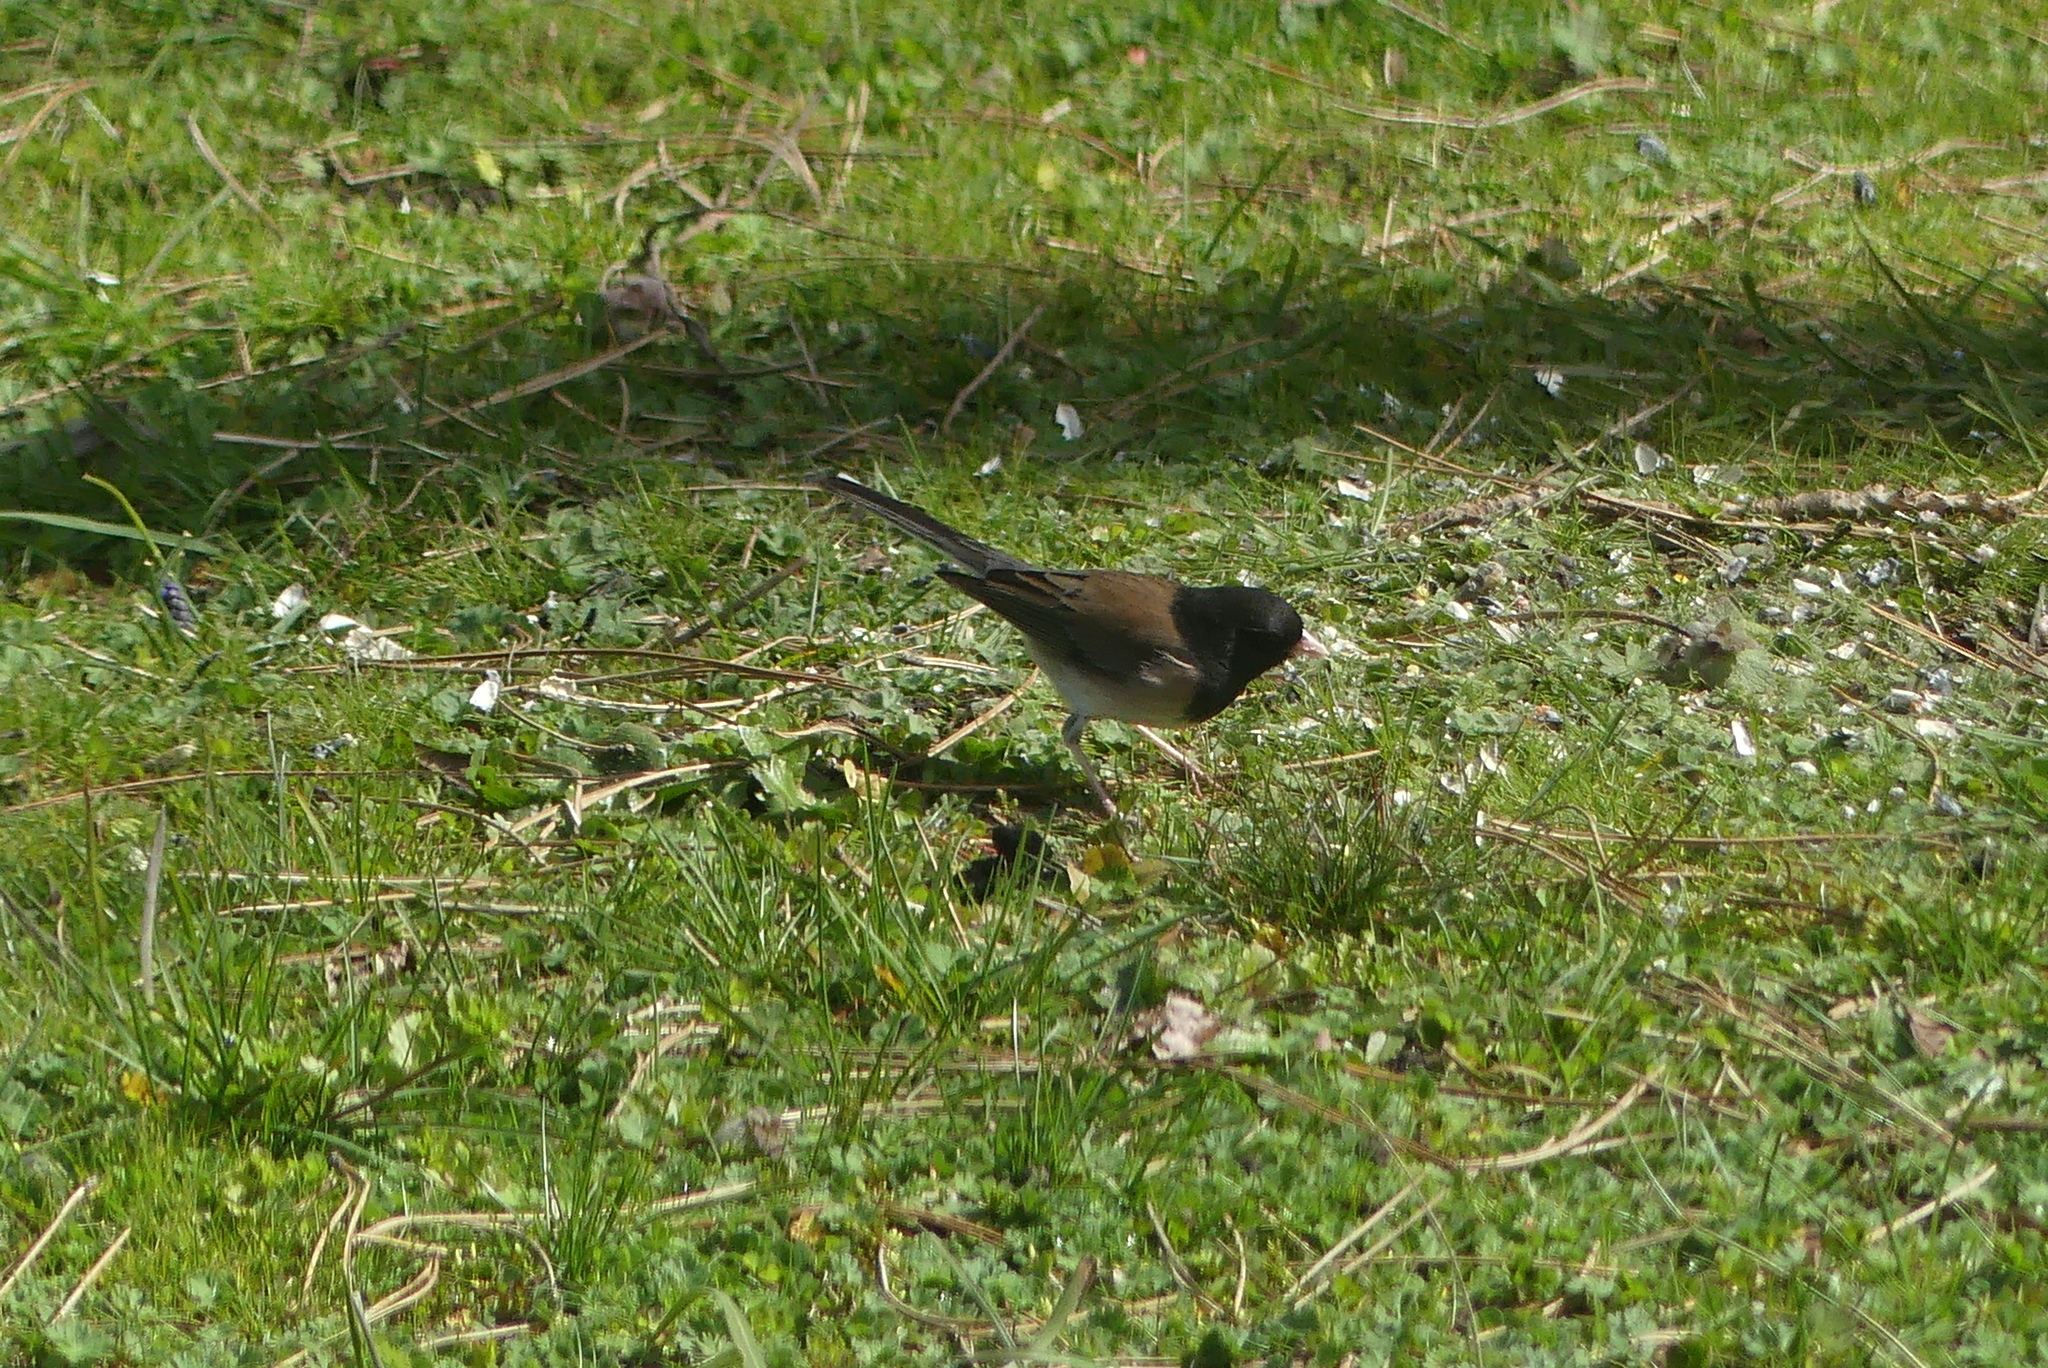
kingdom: Animalia
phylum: Chordata
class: Aves
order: Passeriformes
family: Passerellidae
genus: Junco
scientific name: Junco hyemalis
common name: Dark-eyed junco
